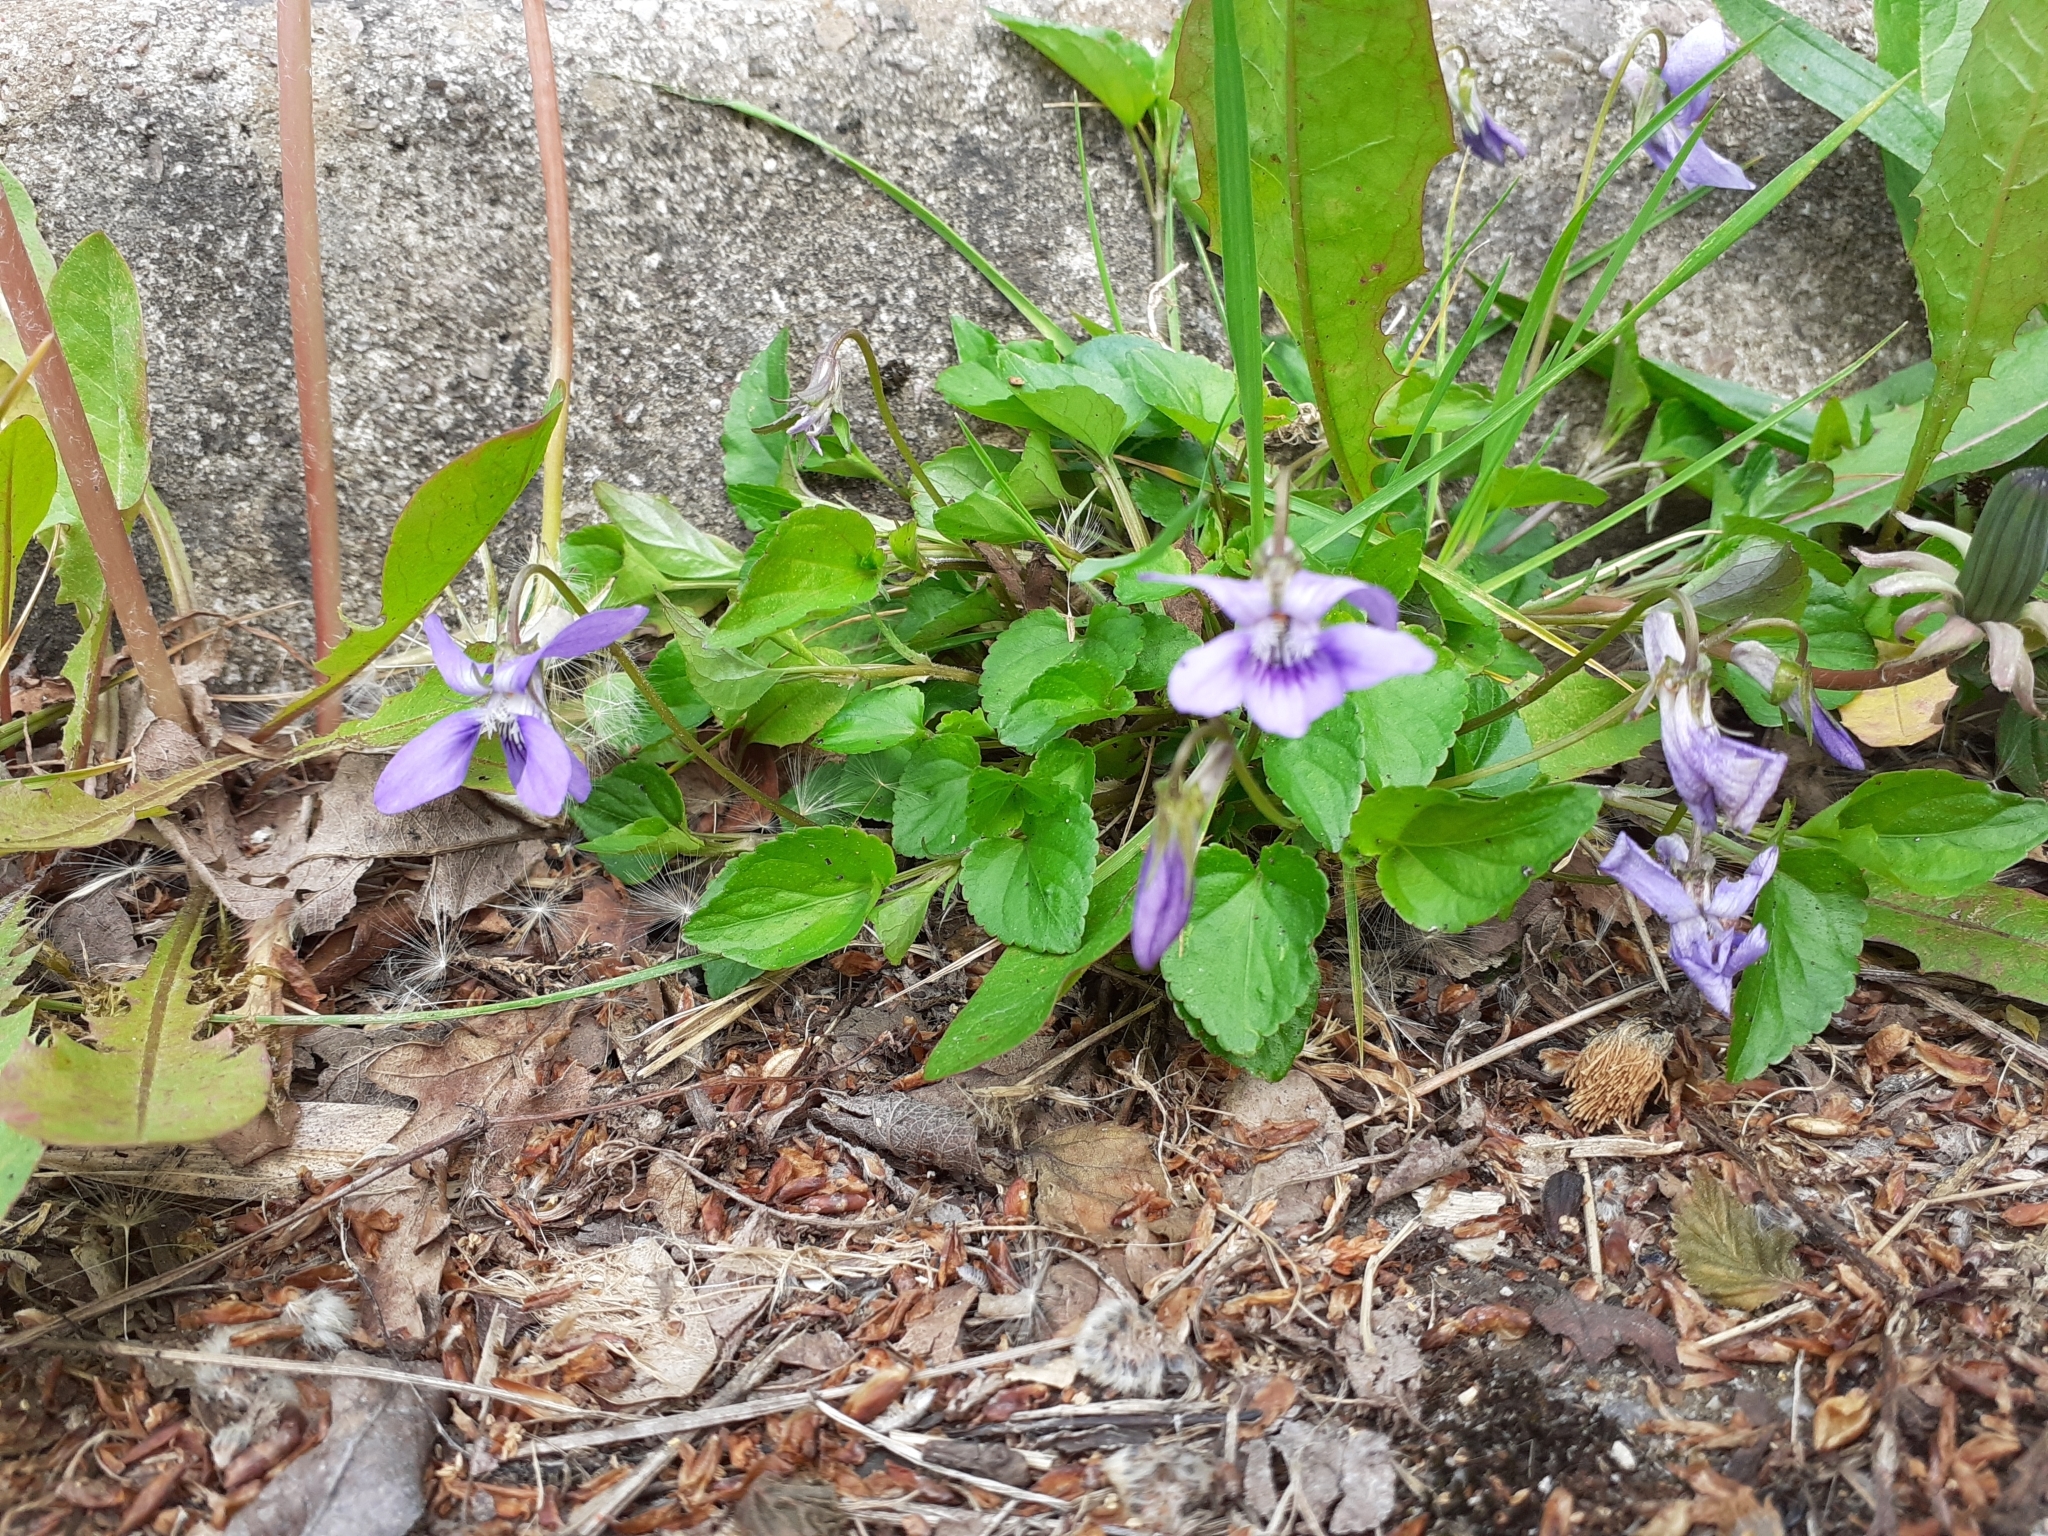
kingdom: Plantae
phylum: Tracheophyta
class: Magnoliopsida
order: Malpighiales
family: Violaceae
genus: Viola
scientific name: Viola riviniana
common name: Common dog-violet
